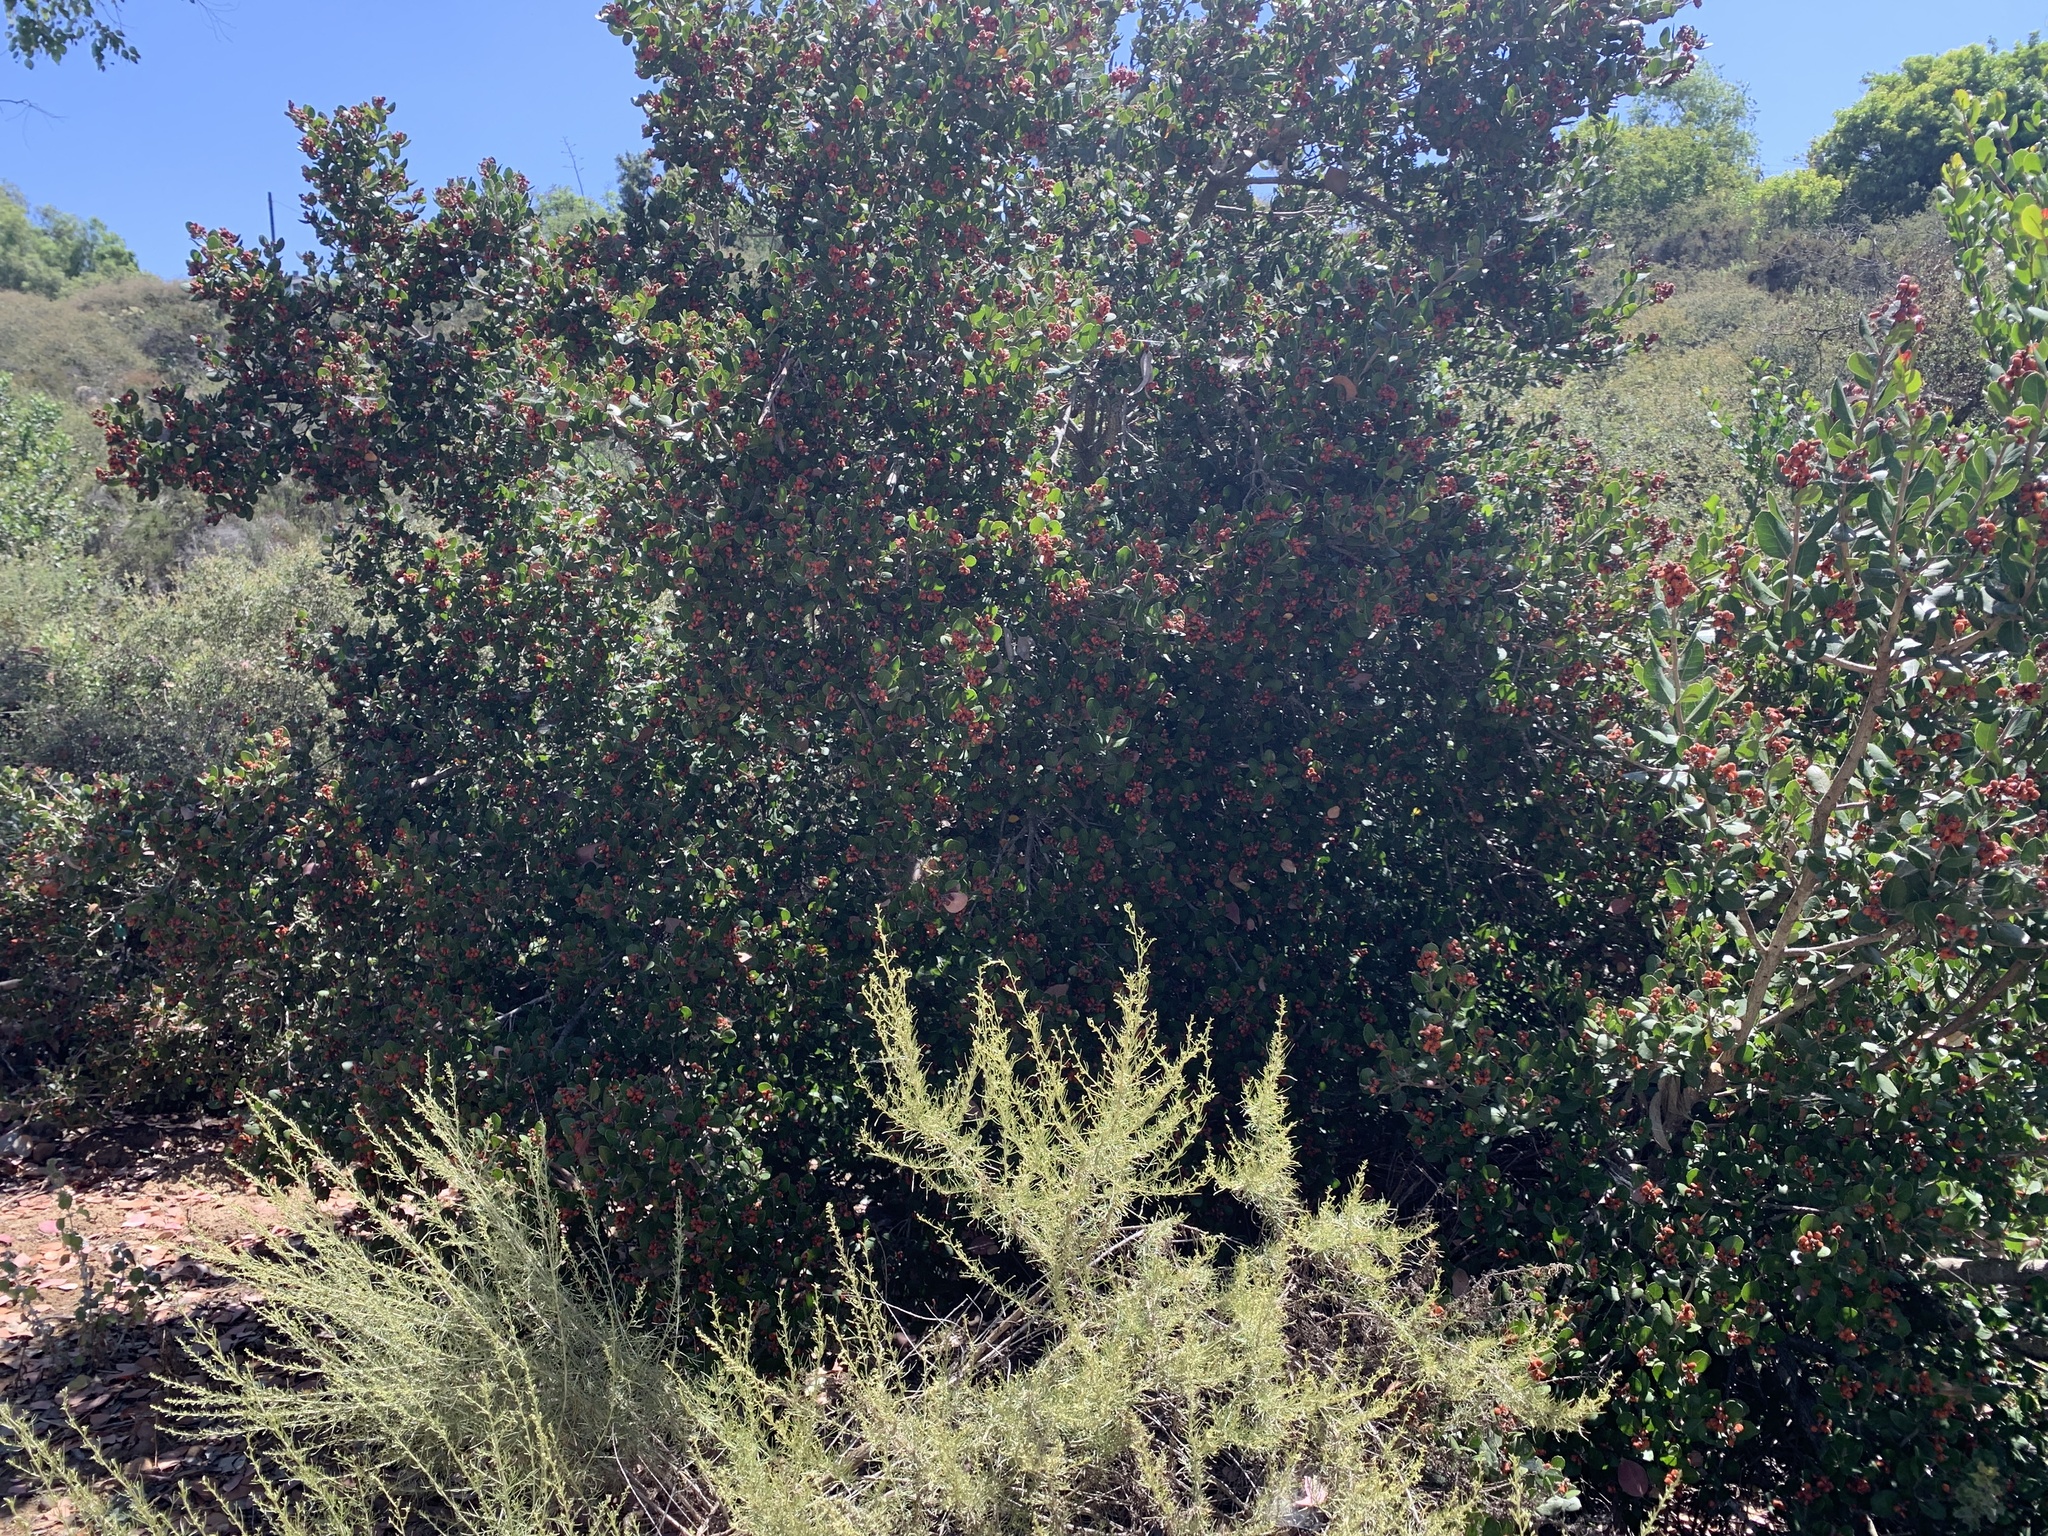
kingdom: Plantae
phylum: Tracheophyta
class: Magnoliopsida
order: Sapindales
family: Anacardiaceae
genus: Rhus
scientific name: Rhus integrifolia
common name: Lemonade sumac
